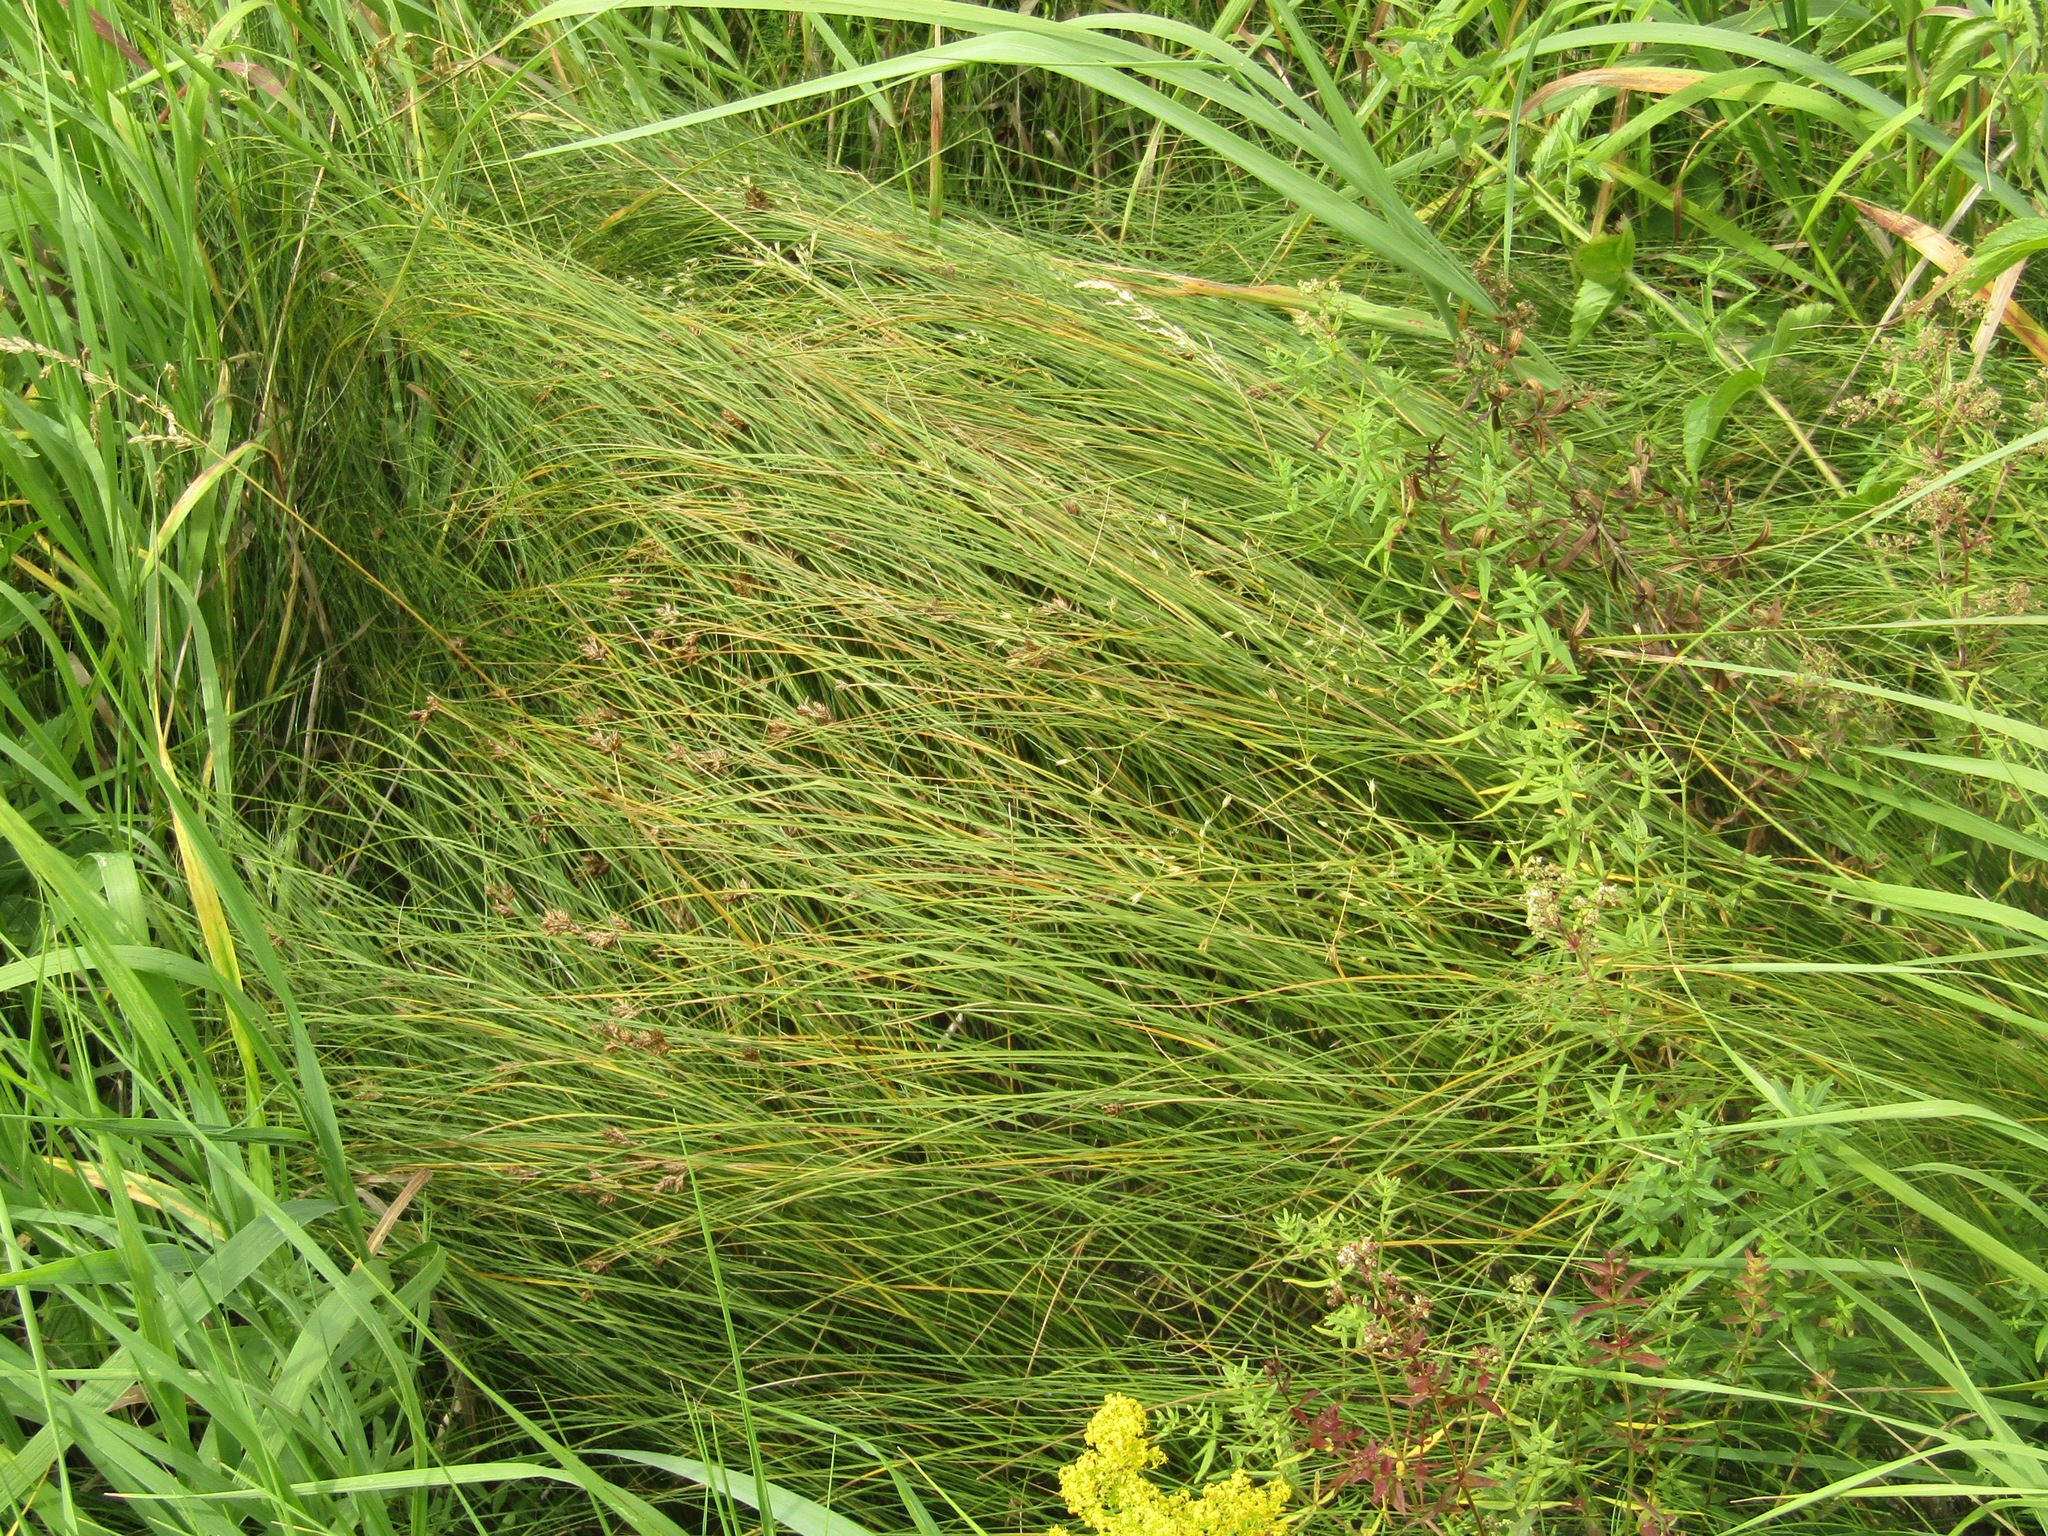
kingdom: Plantae
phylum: Tracheophyta
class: Liliopsida
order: Poales
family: Cyperaceae
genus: Carex
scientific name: Carex praecox
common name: Early sedge
